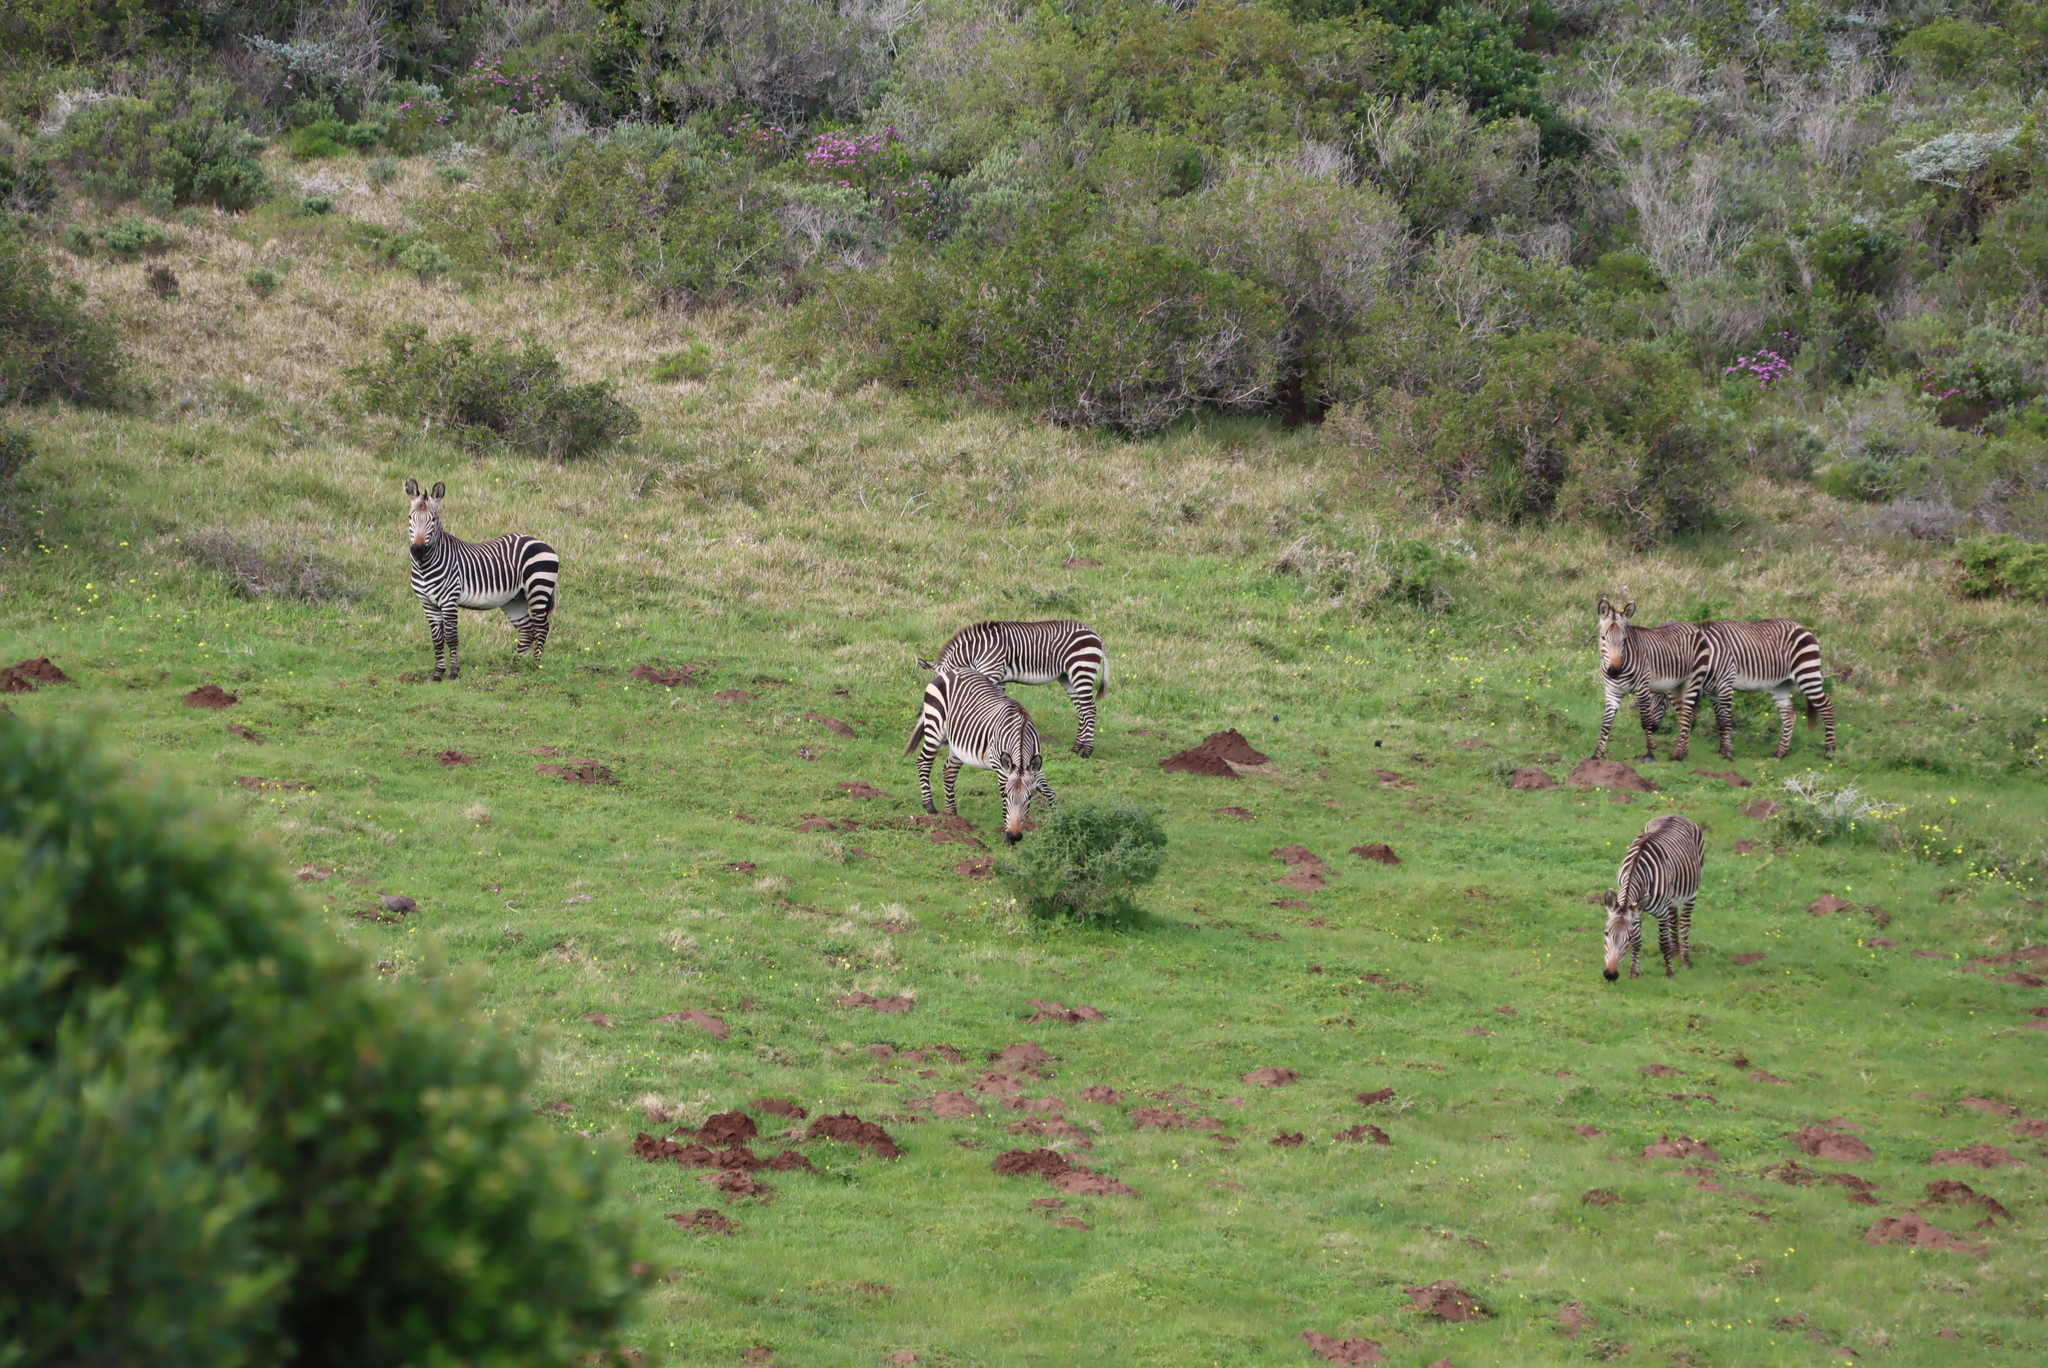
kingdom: Animalia
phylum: Chordata
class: Mammalia
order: Perissodactyla
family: Equidae
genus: Equus
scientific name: Equus zebra
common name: Mountain zebra
